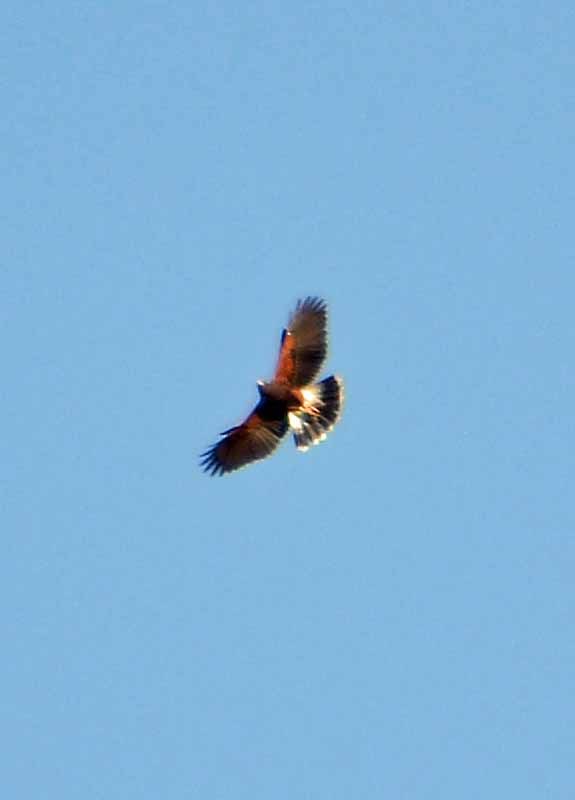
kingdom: Animalia
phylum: Chordata
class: Aves
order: Accipitriformes
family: Accipitridae
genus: Parabuteo
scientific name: Parabuteo unicinctus
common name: Harris's hawk
